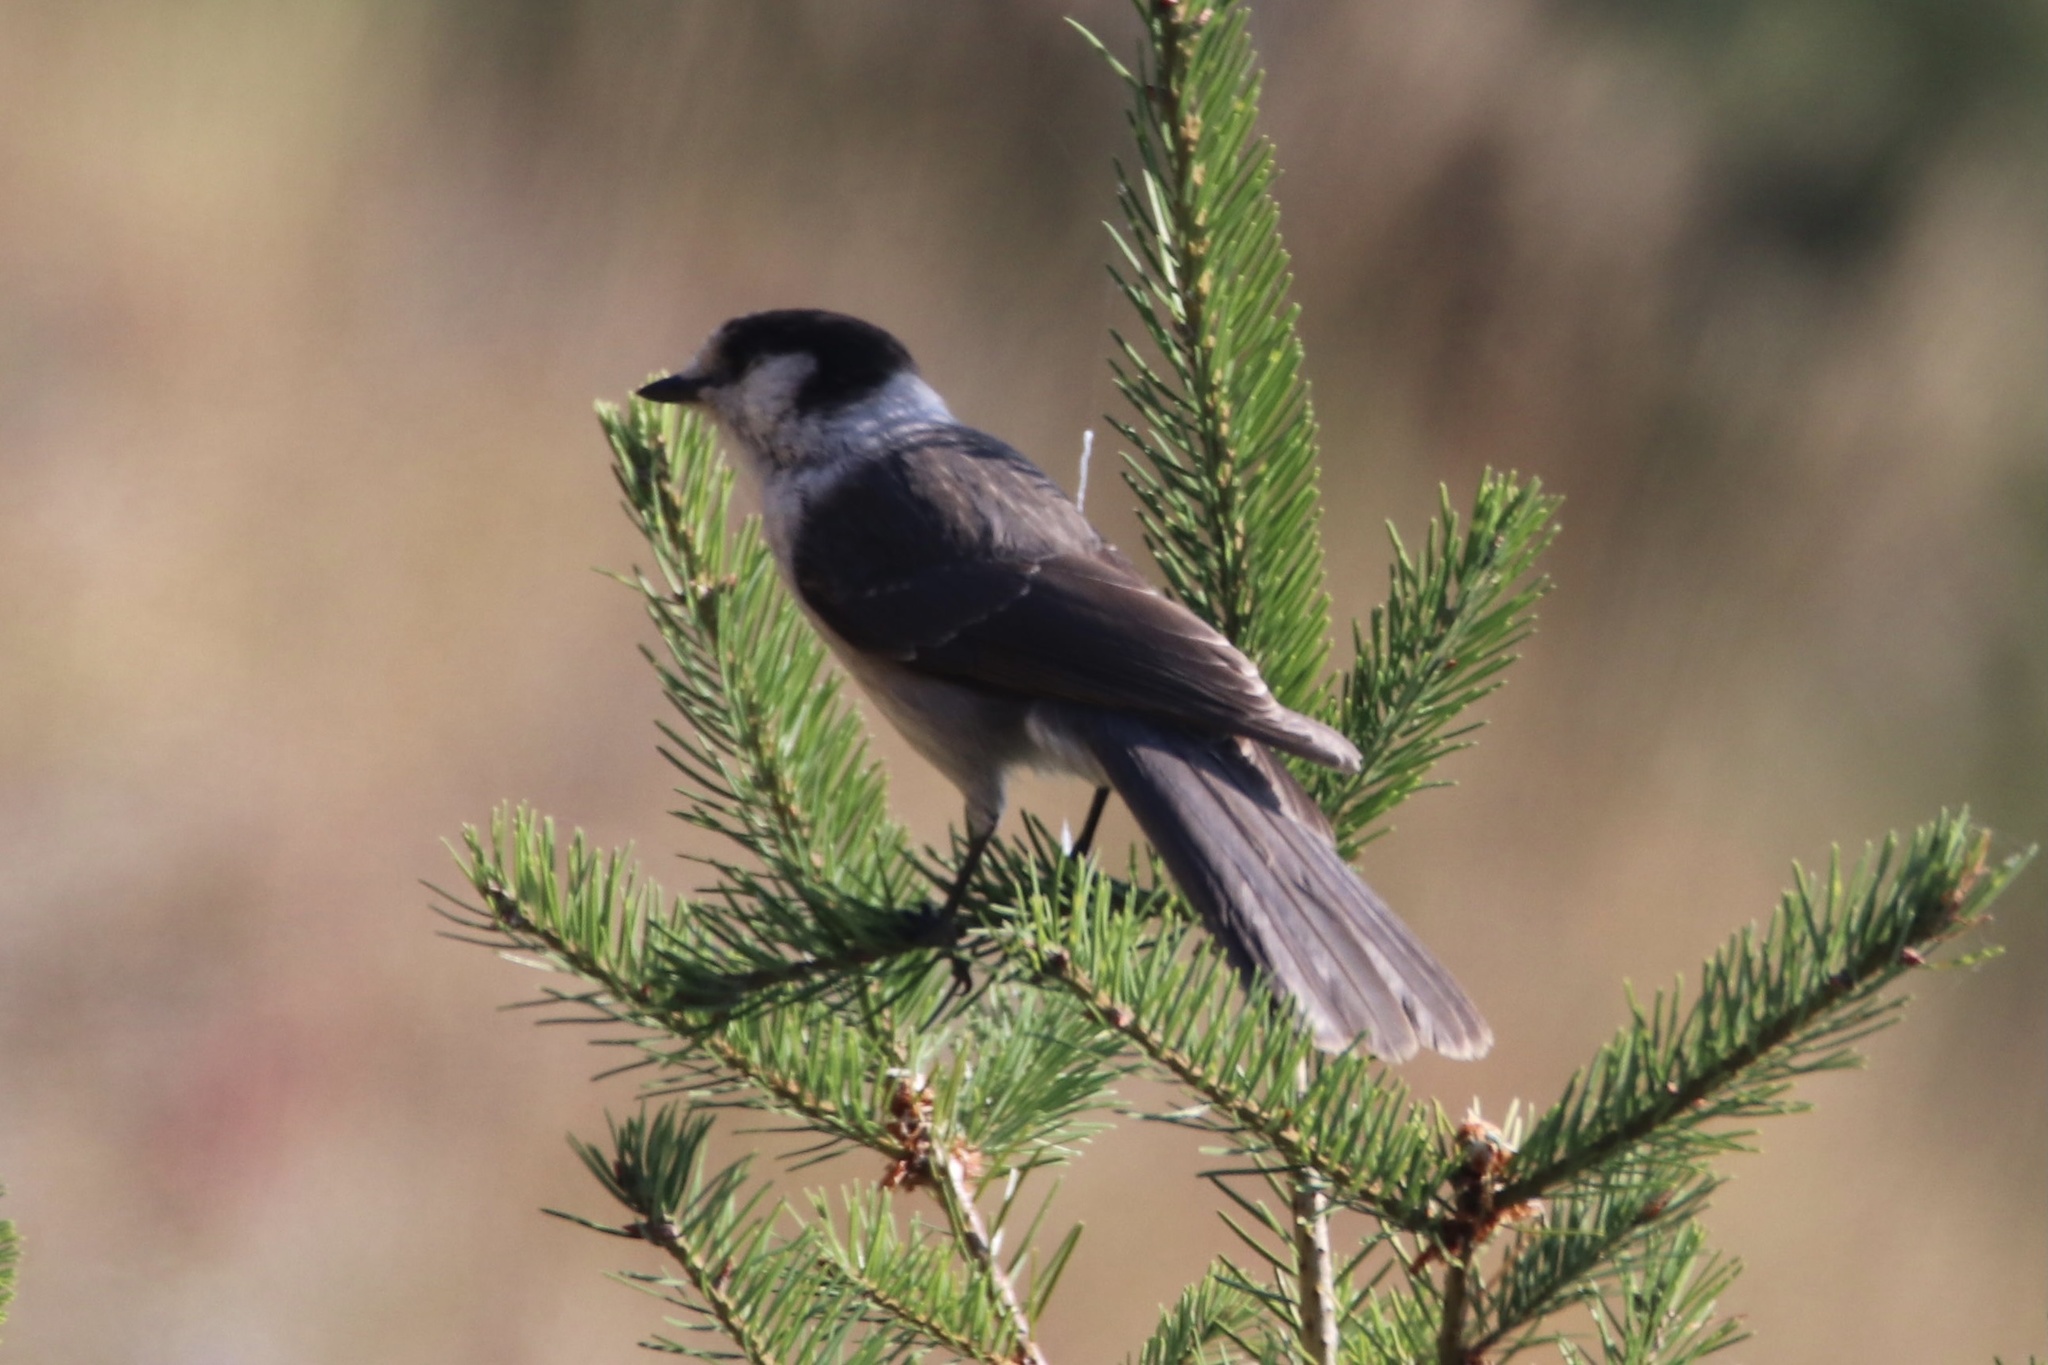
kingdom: Animalia
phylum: Chordata
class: Aves
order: Passeriformes
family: Corvidae
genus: Perisoreus
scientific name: Perisoreus canadensis
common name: Gray jay
